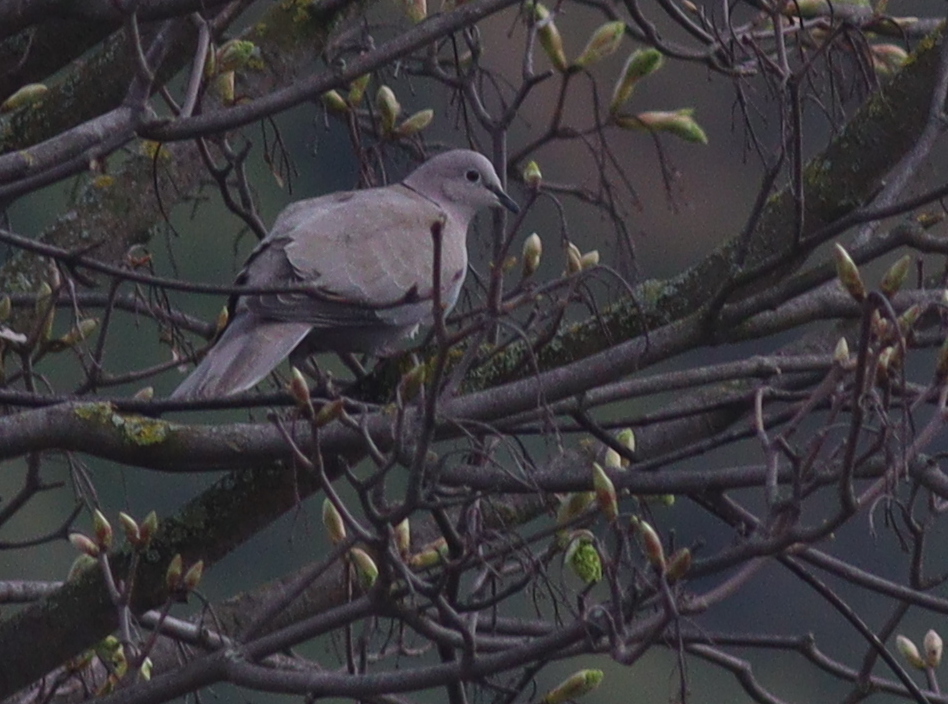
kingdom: Animalia
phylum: Chordata
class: Aves
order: Columbiformes
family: Columbidae
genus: Streptopelia
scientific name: Streptopelia decaocto
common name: Eurasian collared dove
